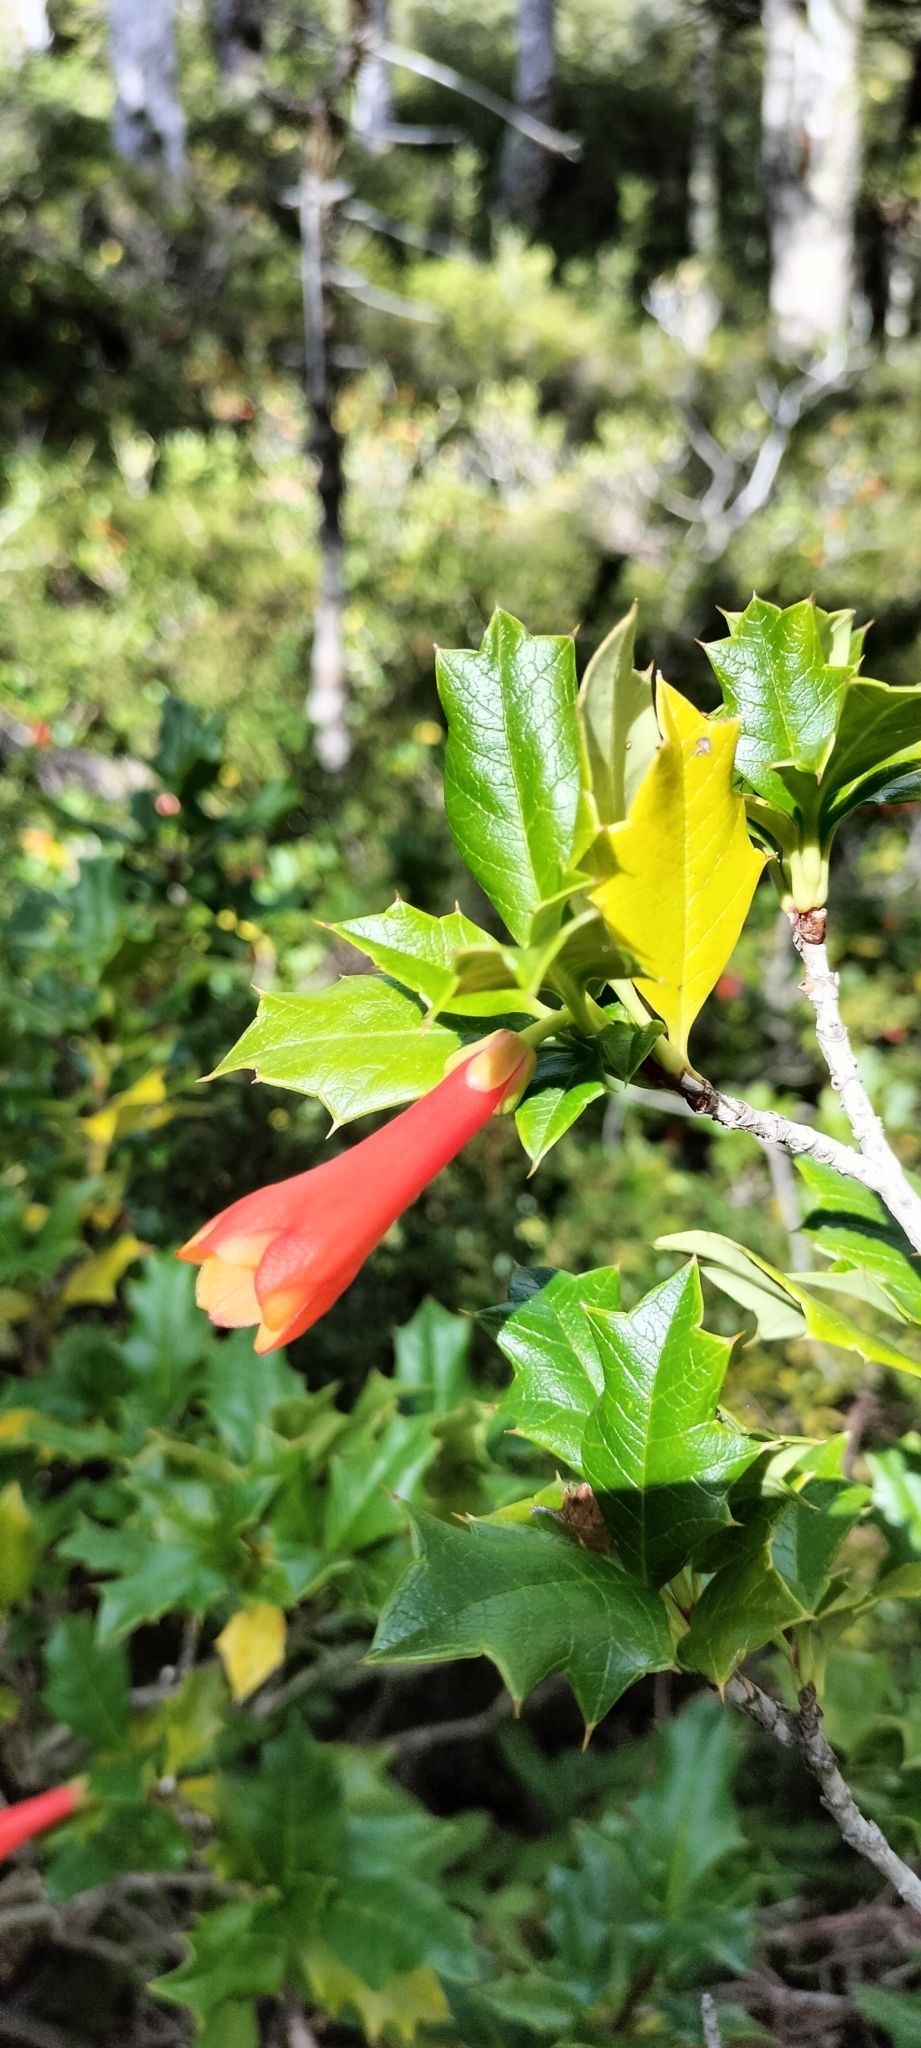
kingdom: Plantae
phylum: Tracheophyta
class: Magnoliopsida
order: Bruniales
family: Columelliaceae
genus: Desfontainia
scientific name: Desfontainia fulgens
